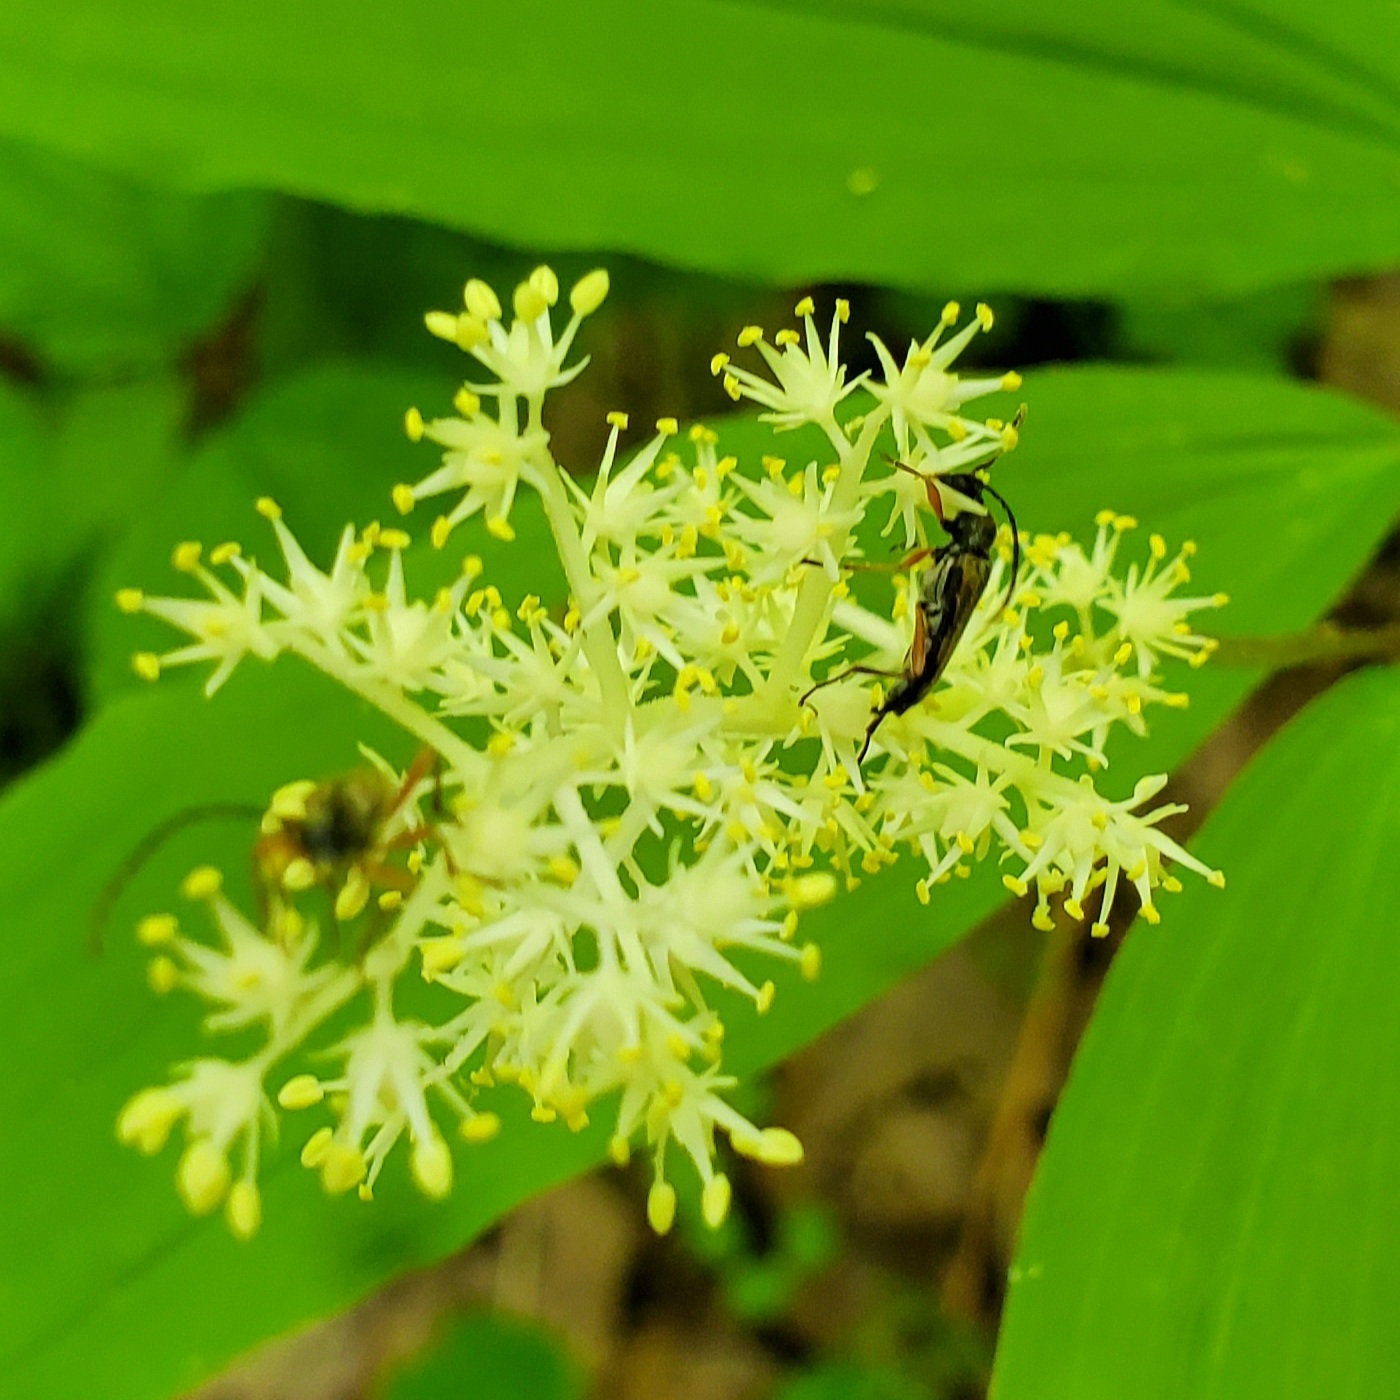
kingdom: Animalia
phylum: Arthropoda
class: Insecta
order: Coleoptera
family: Cerambycidae
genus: Analeptura
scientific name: Analeptura lineola
